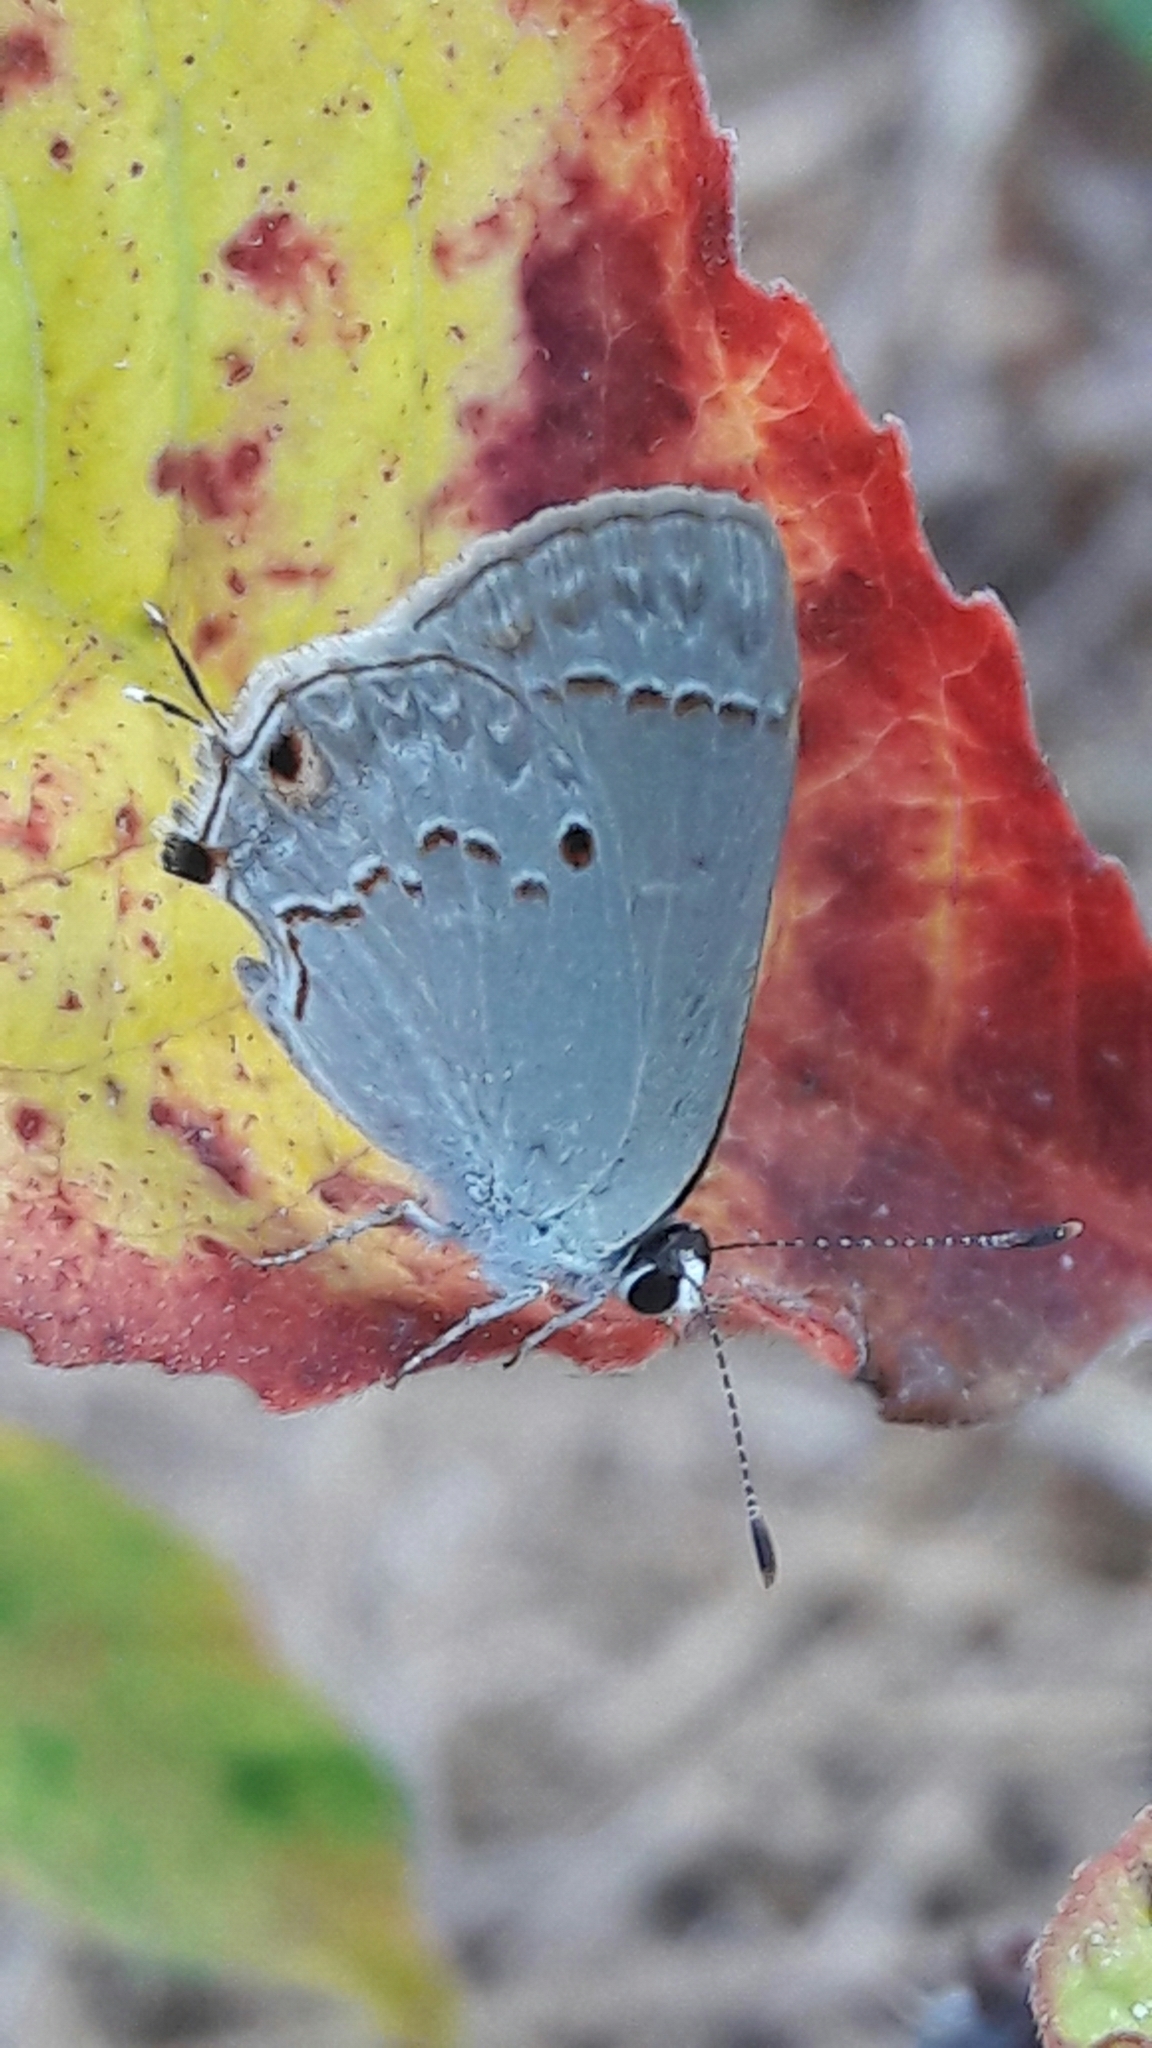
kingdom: Animalia
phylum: Arthropoda
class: Insecta
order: Lepidoptera
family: Lycaenidae
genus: Thecla
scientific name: Thecla rufofusca
